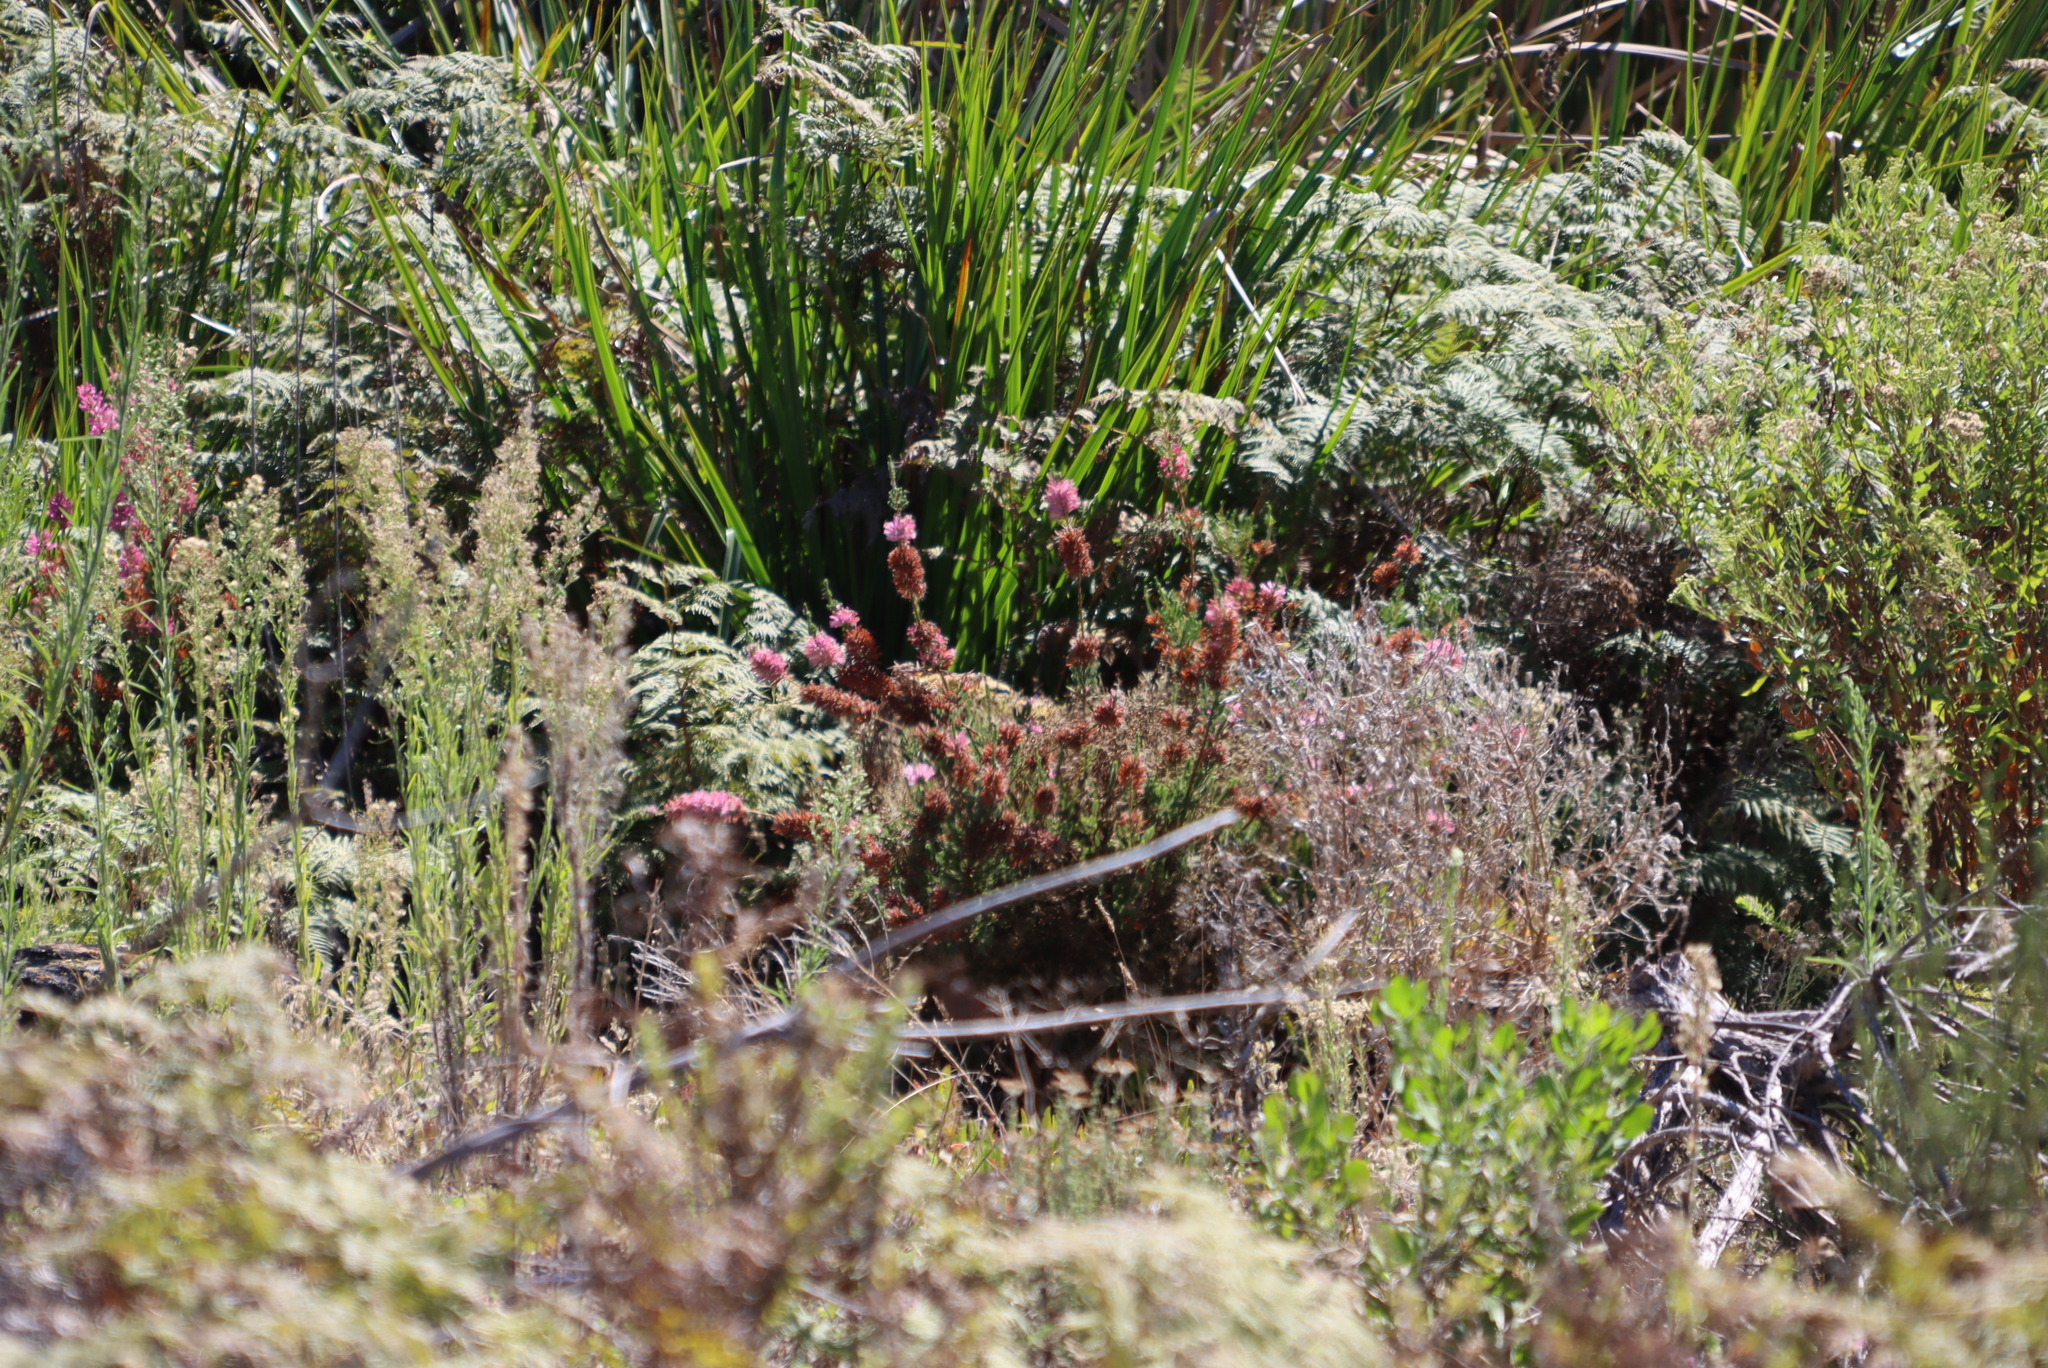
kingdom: Plantae
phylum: Tracheophyta
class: Magnoliopsida
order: Ericales
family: Ericaceae
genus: Erica
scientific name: Erica verticillata
